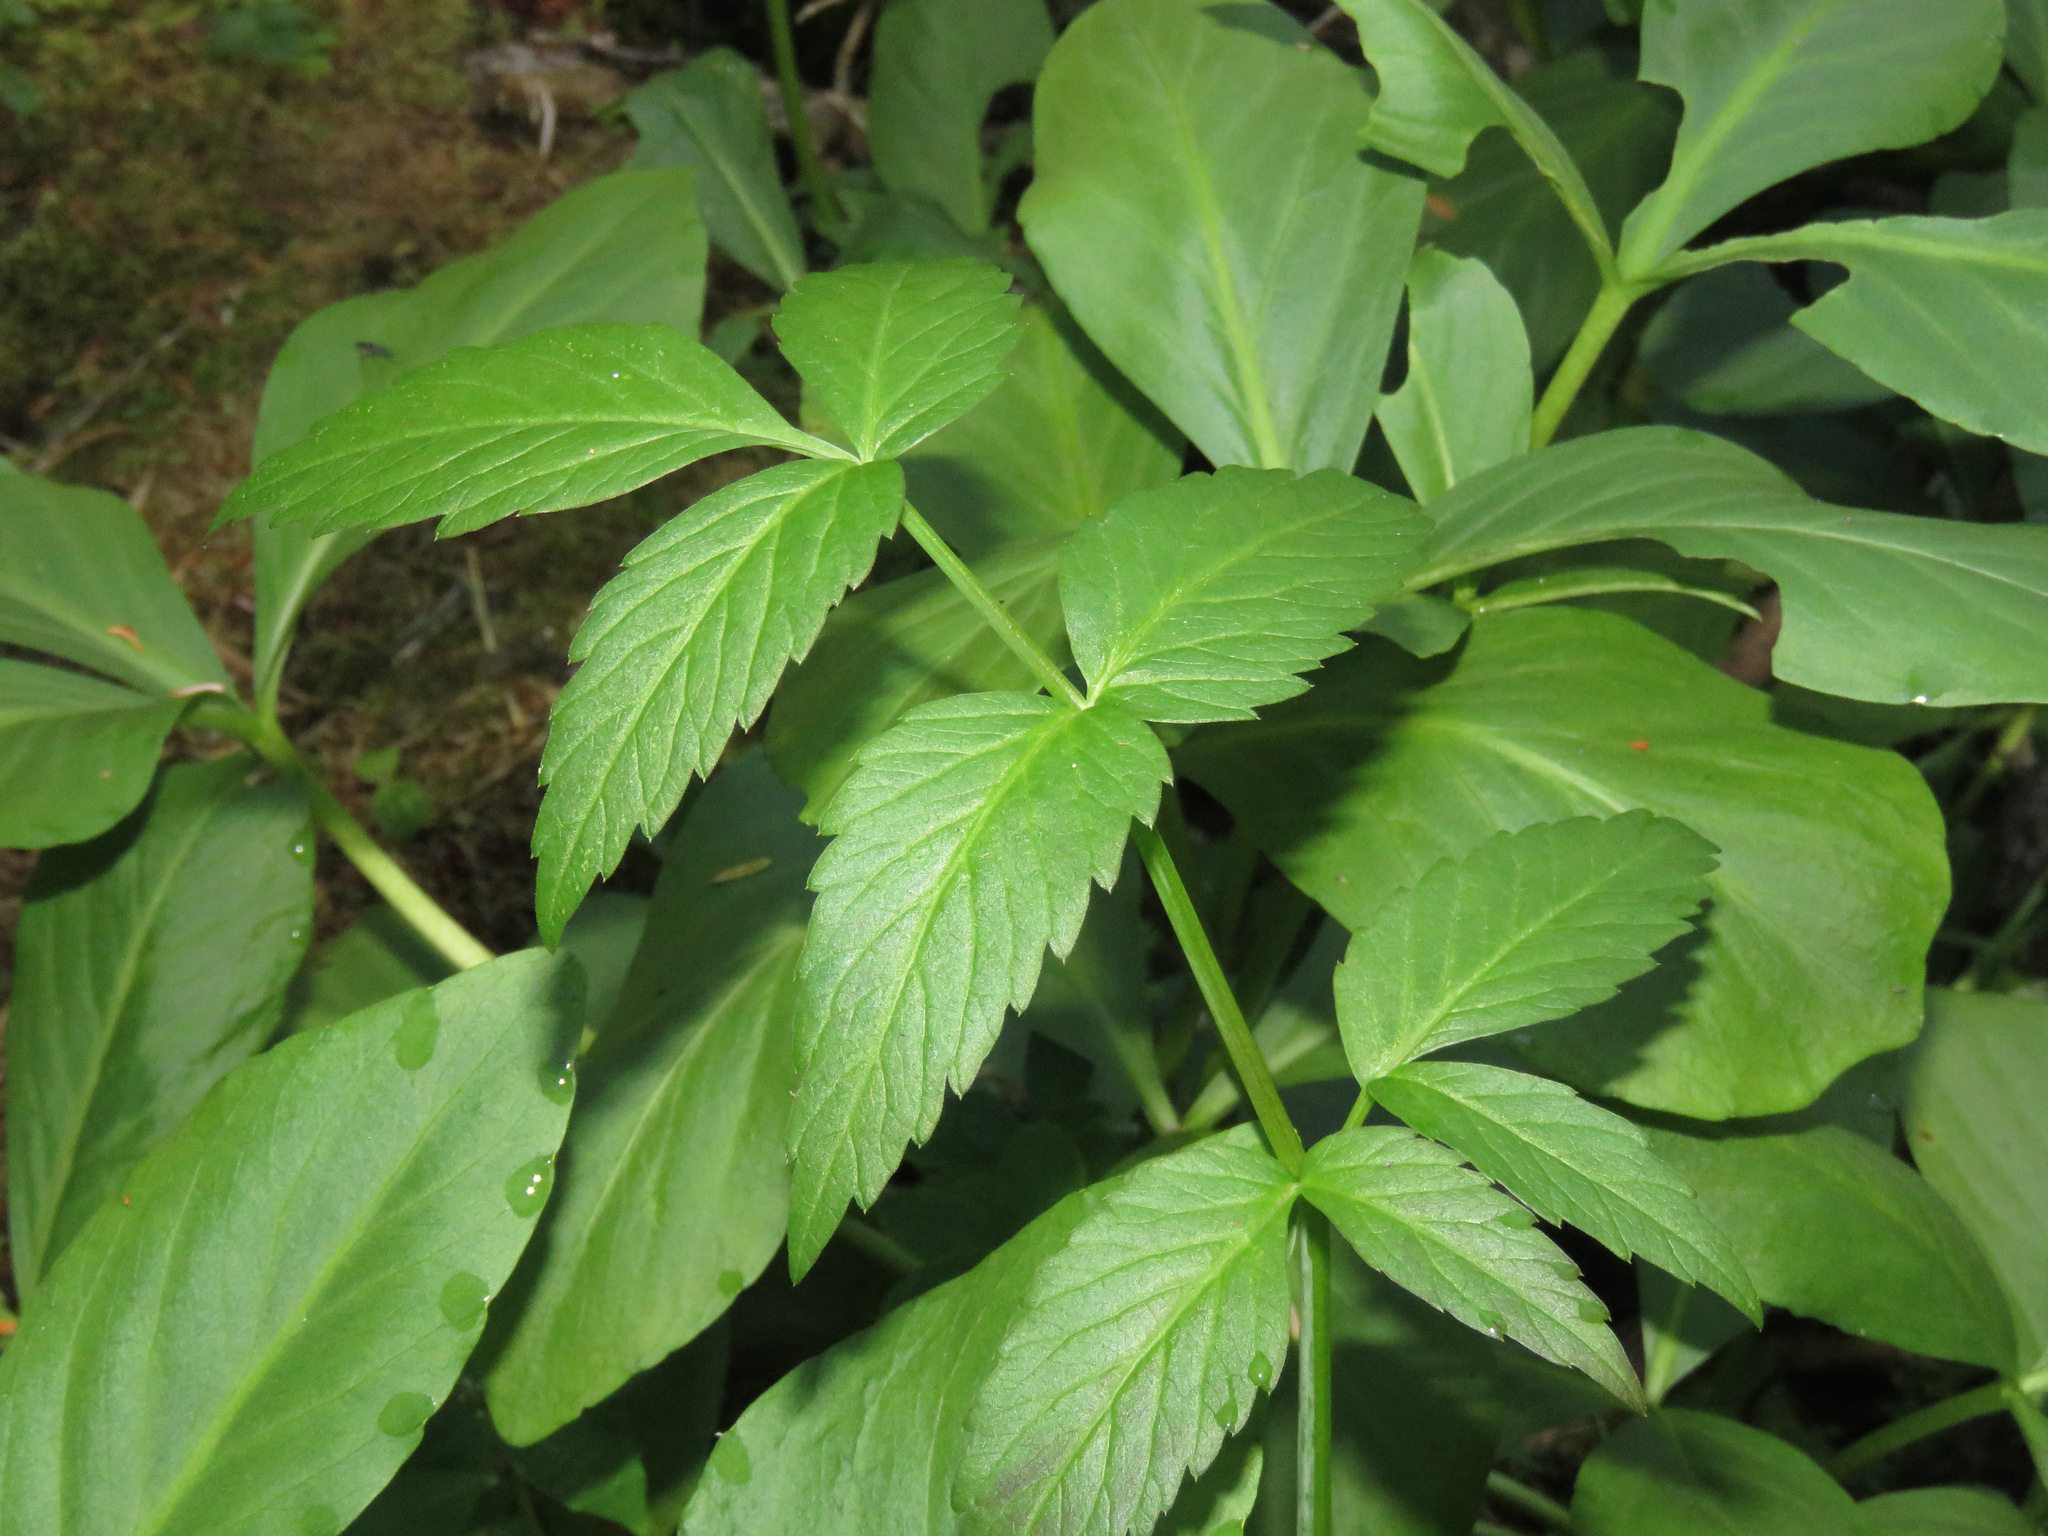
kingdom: Plantae
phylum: Tracheophyta
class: Magnoliopsida
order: Apiales
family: Apiaceae
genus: Angelica
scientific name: Angelica genuflexa
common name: Kneeling angelica
